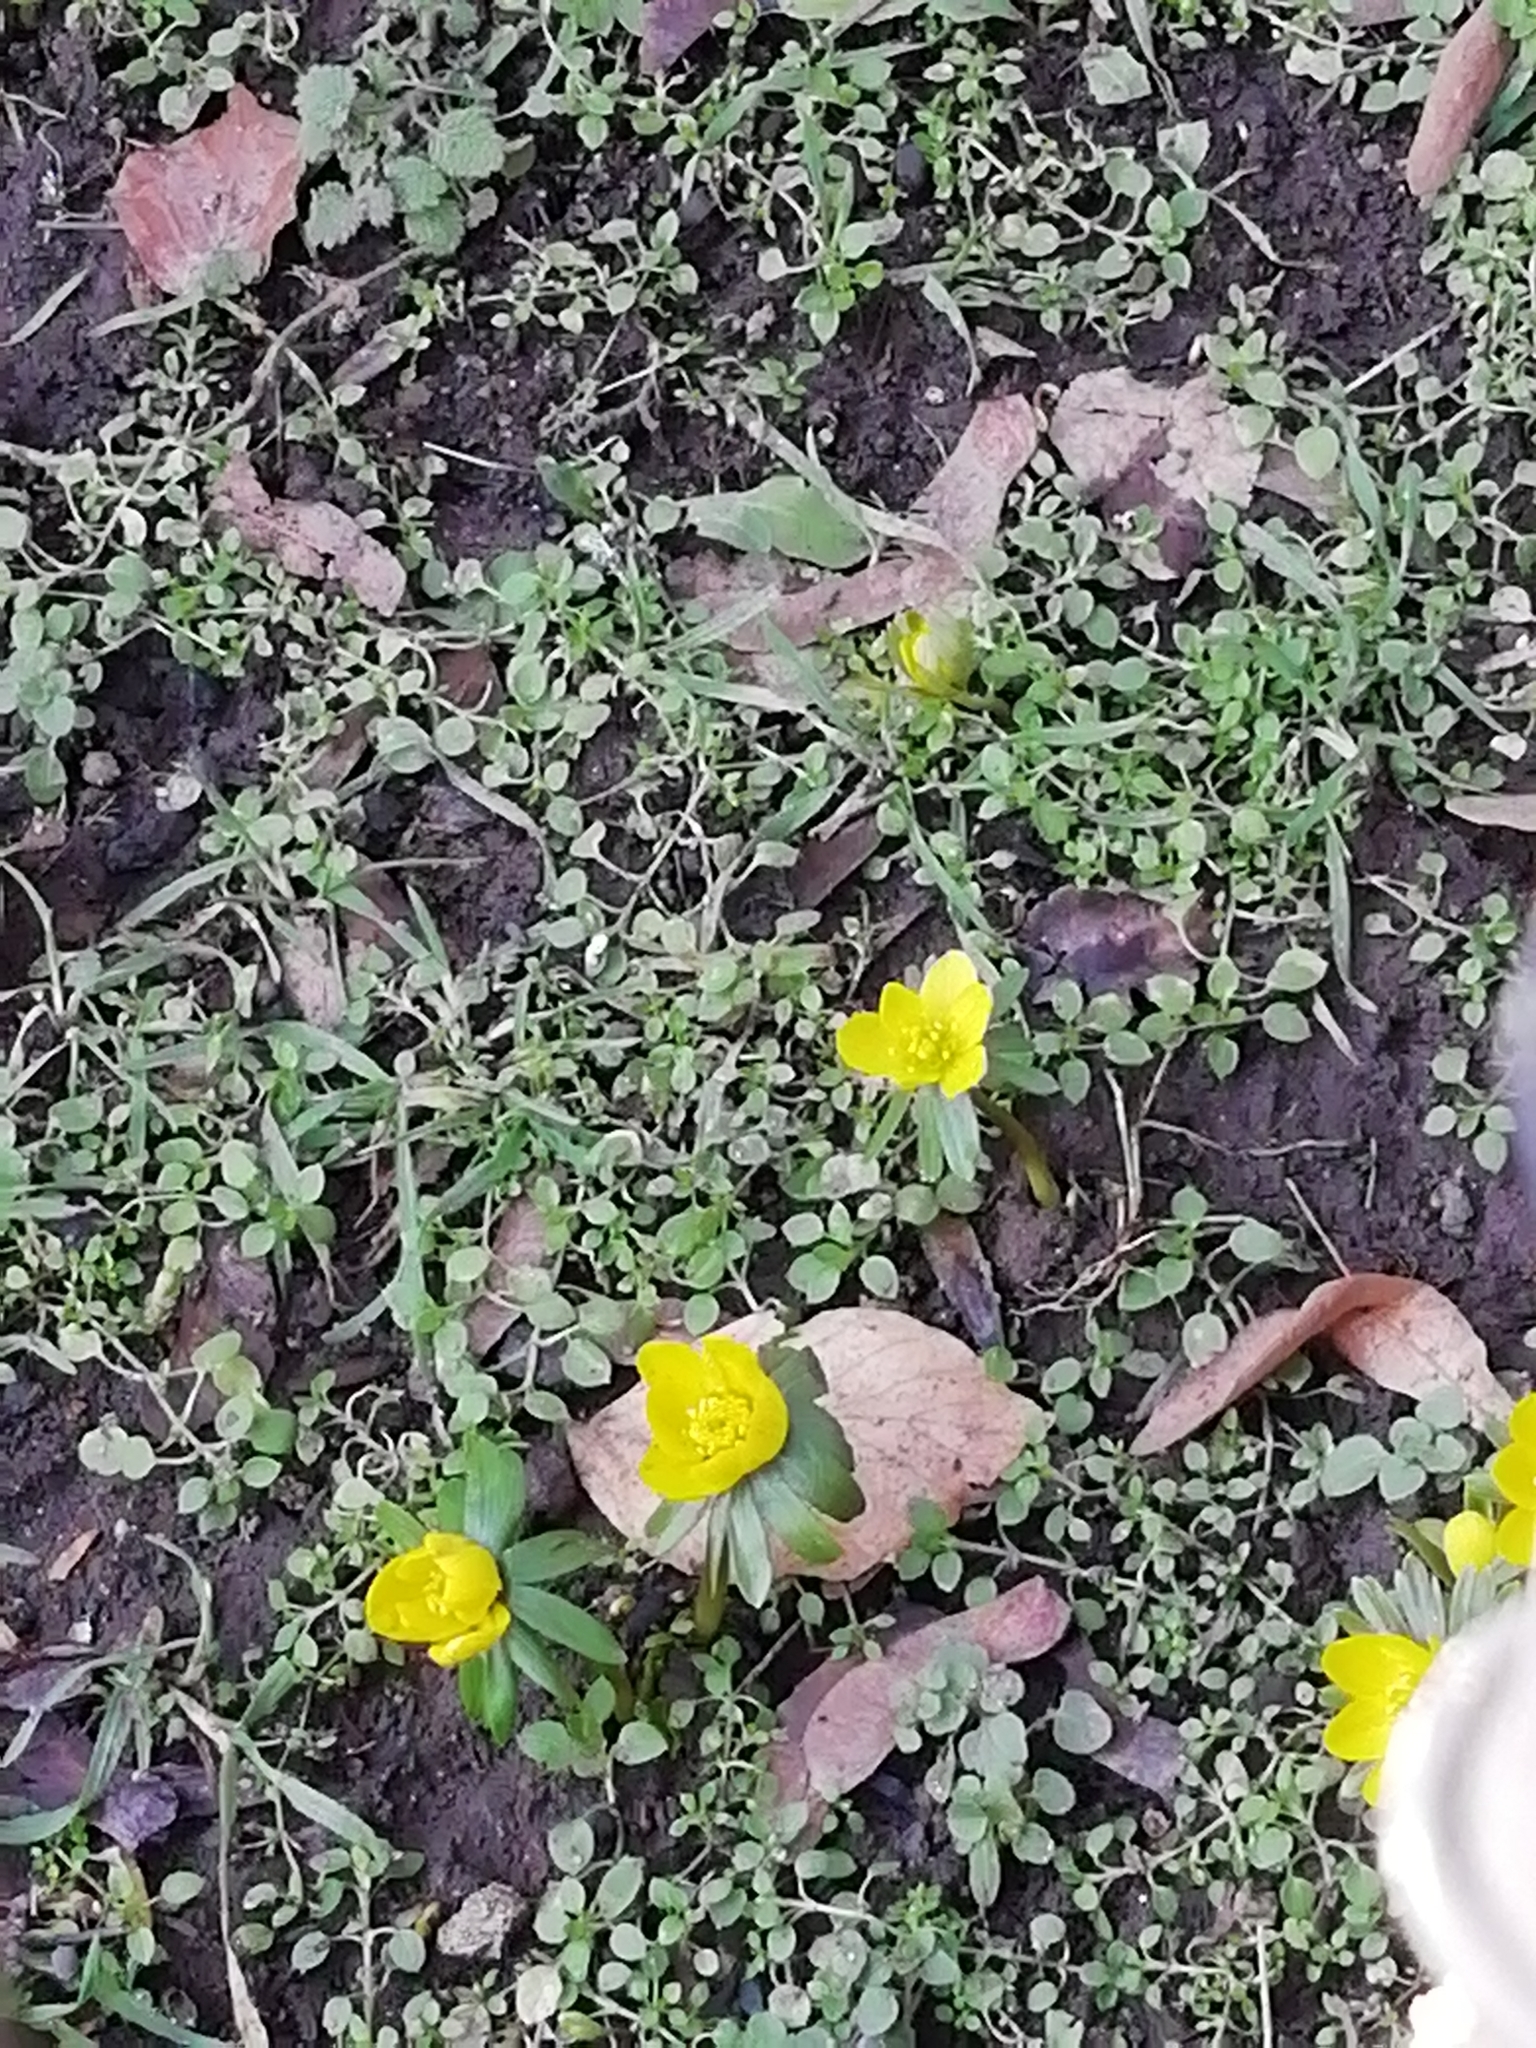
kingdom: Plantae
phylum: Tracheophyta
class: Magnoliopsida
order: Ranunculales
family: Ranunculaceae
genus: Eranthis
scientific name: Eranthis hyemalis
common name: Winter aconite
